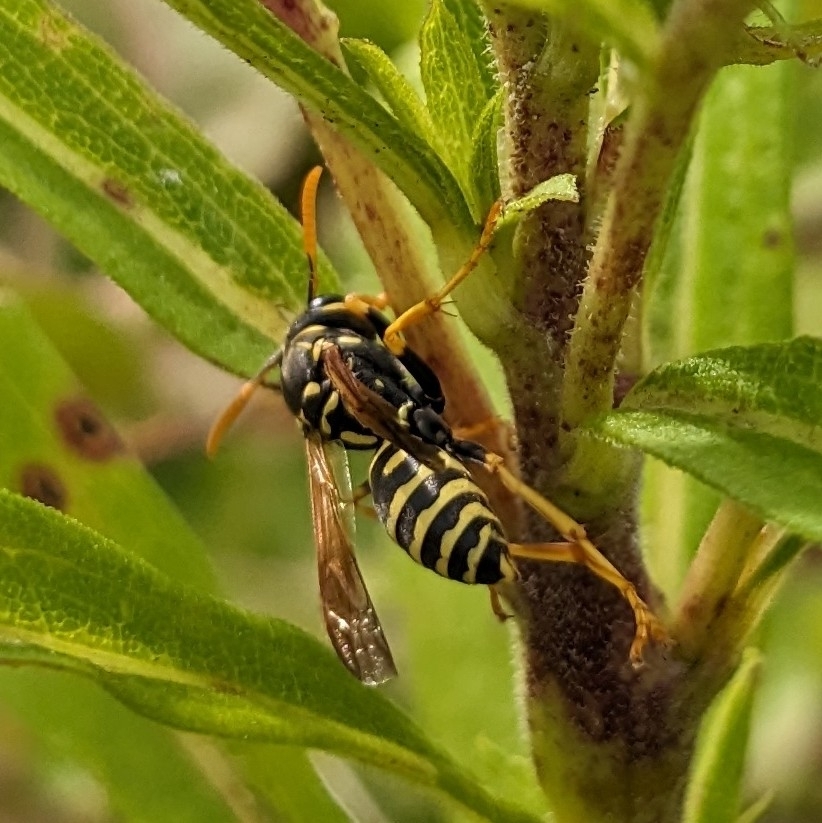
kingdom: Animalia
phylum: Arthropoda
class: Insecta
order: Hymenoptera
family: Eumenidae
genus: Polistes
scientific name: Polistes dominula
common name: Paper wasp
